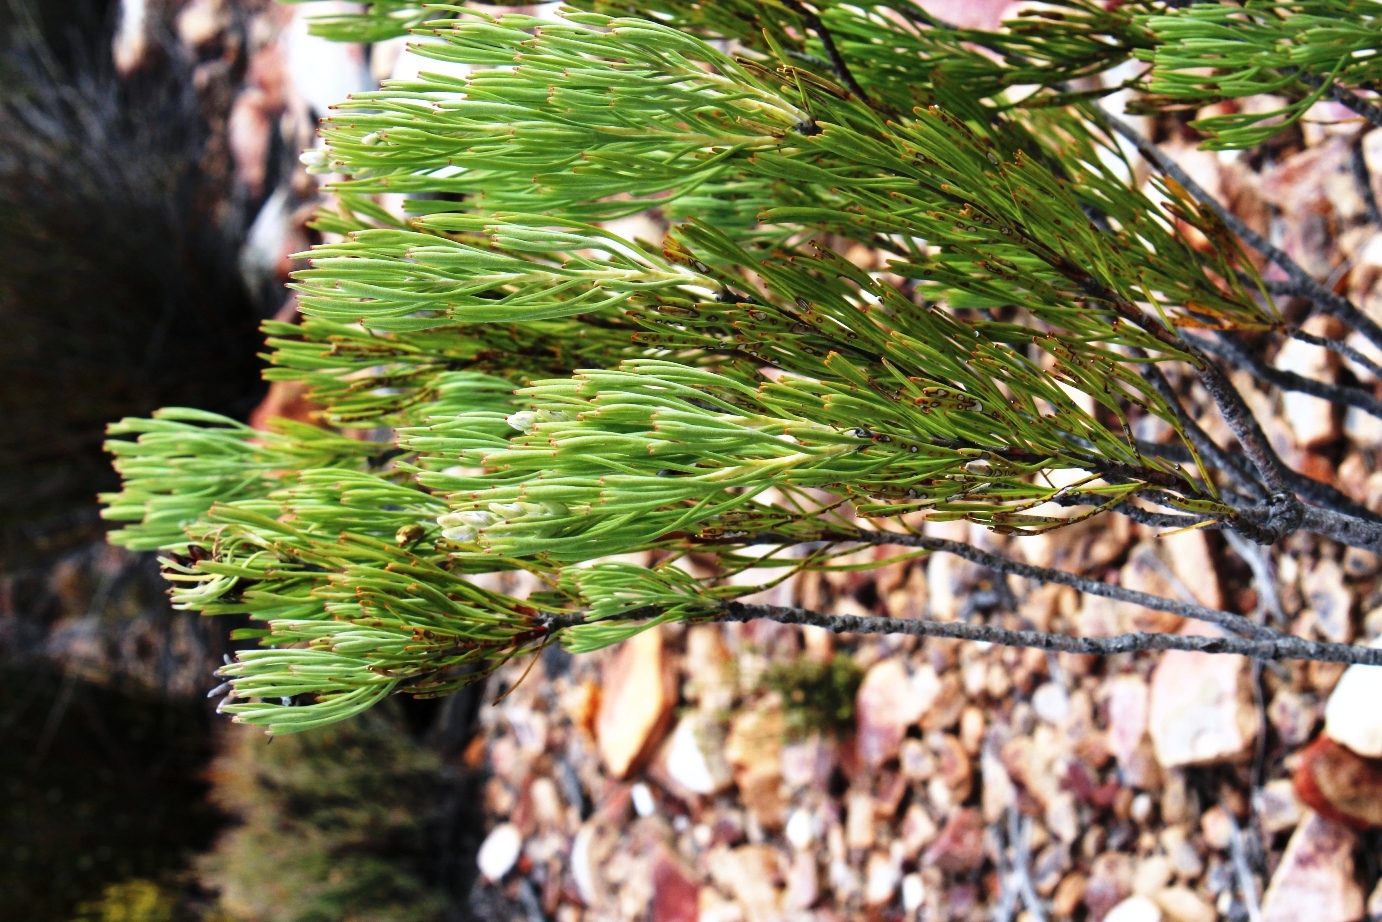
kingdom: Plantae
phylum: Tracheophyta
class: Magnoliopsida
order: Proteales
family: Proteaceae
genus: Paranomus
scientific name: Paranomus dregei
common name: Scented sceptre
